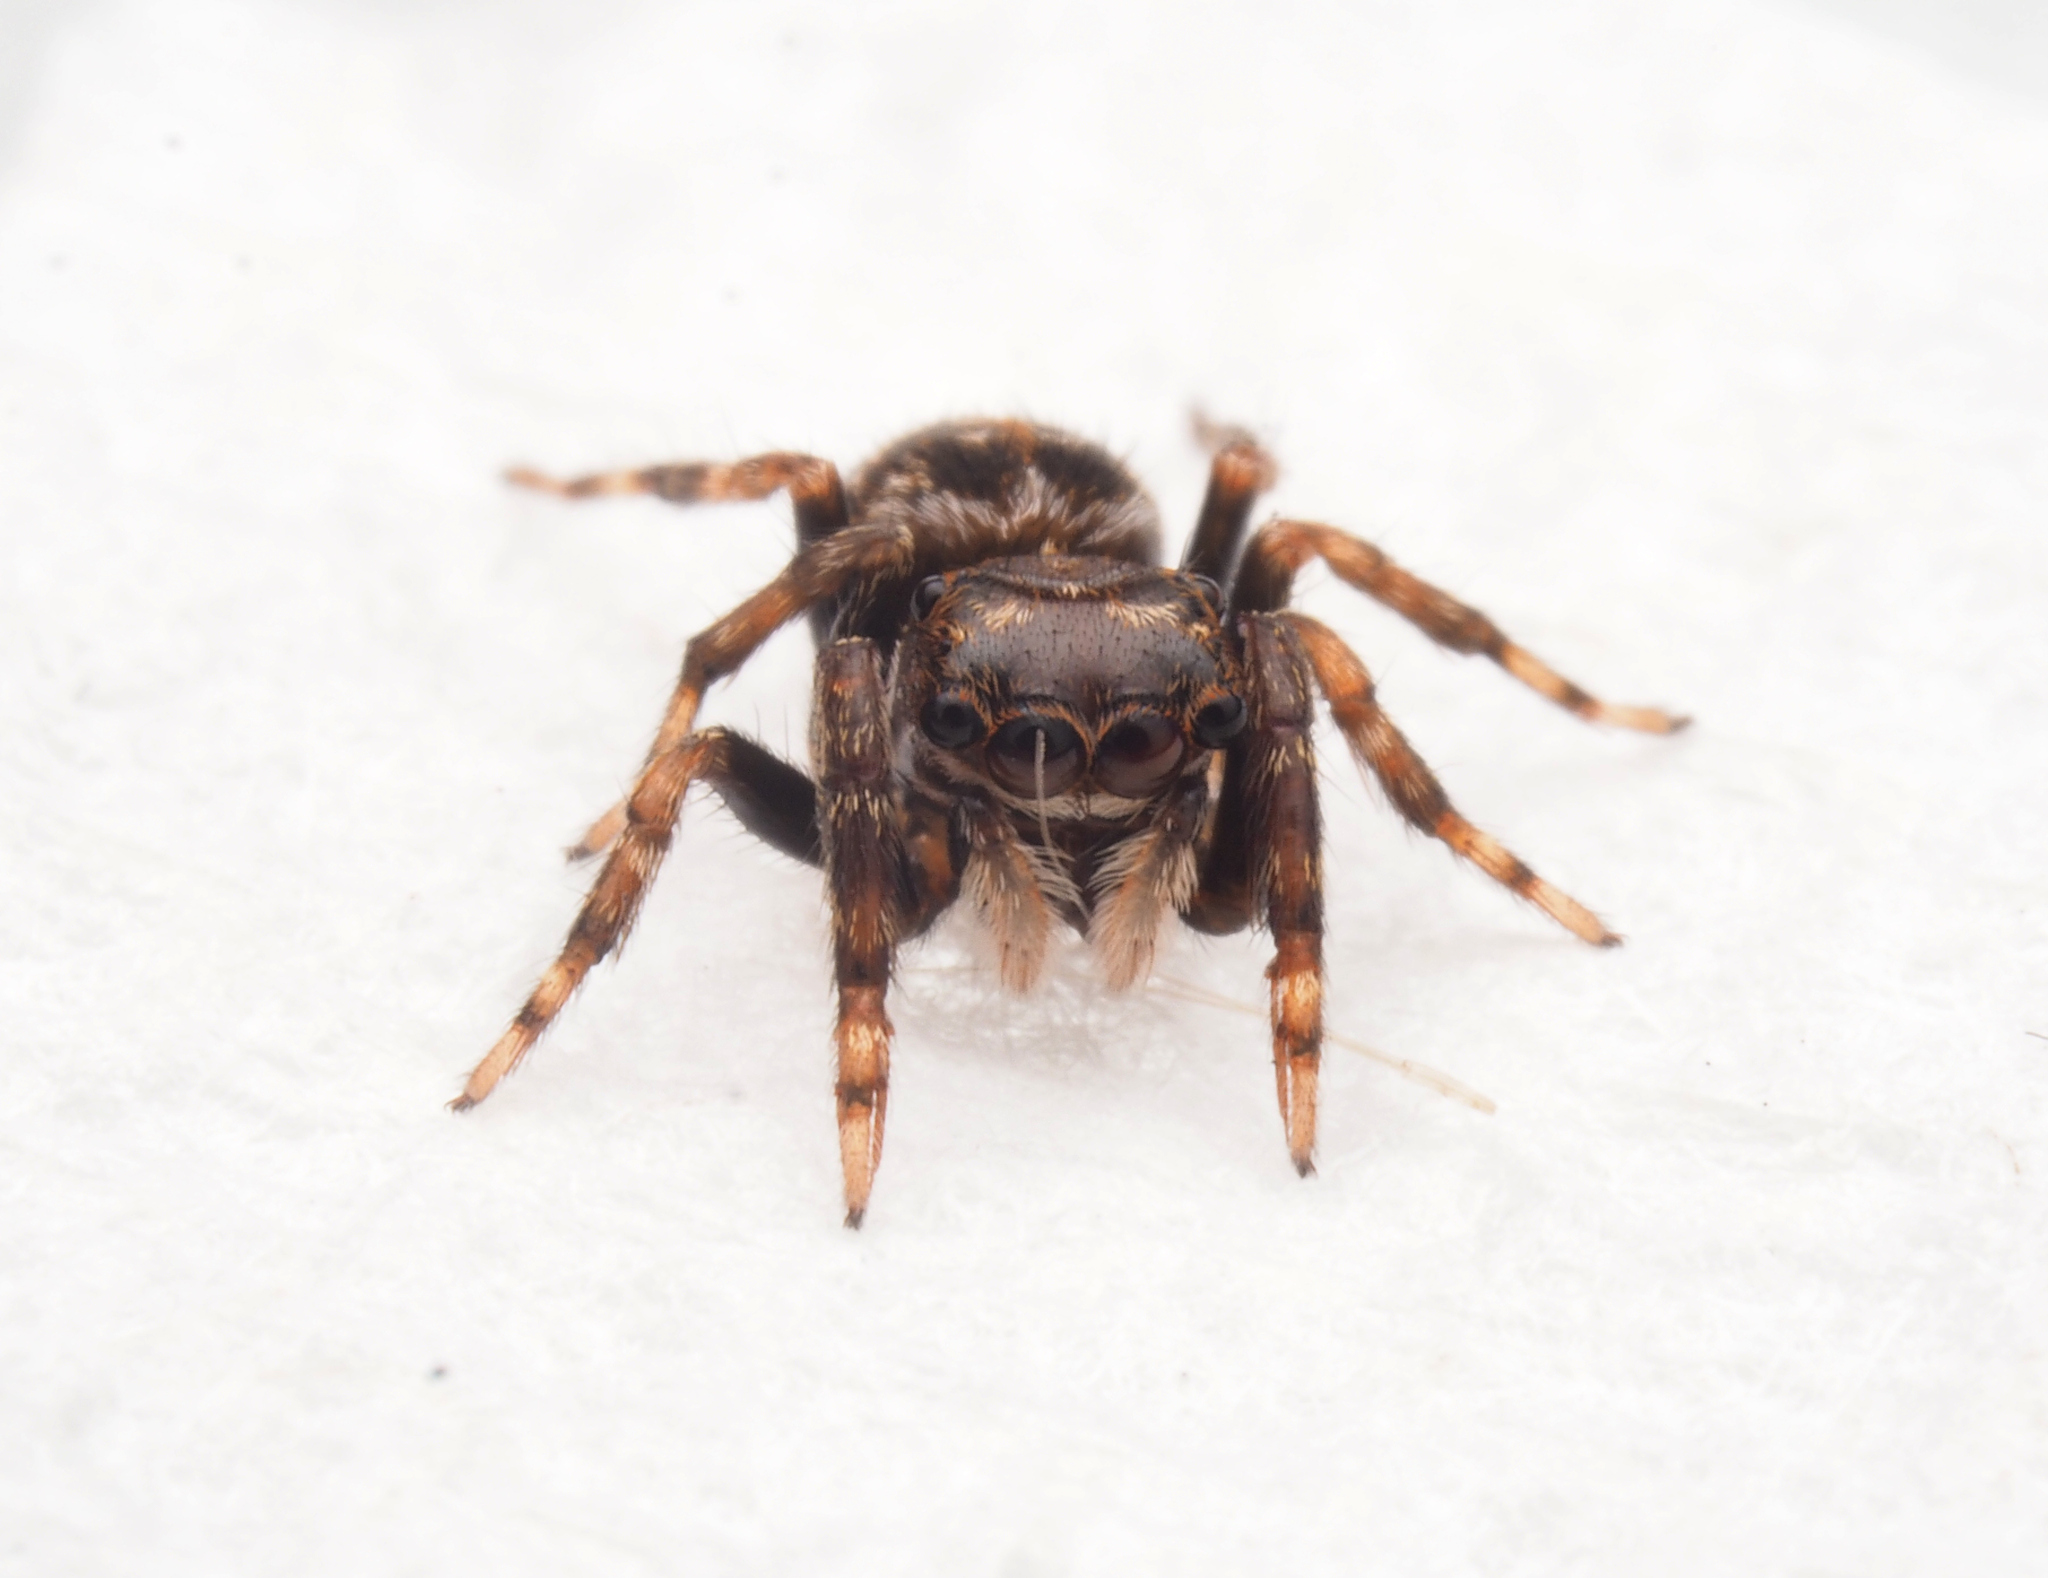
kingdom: Animalia
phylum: Arthropoda
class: Arachnida
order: Araneae
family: Salticidae
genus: Papuaneon
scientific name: Papuaneon
